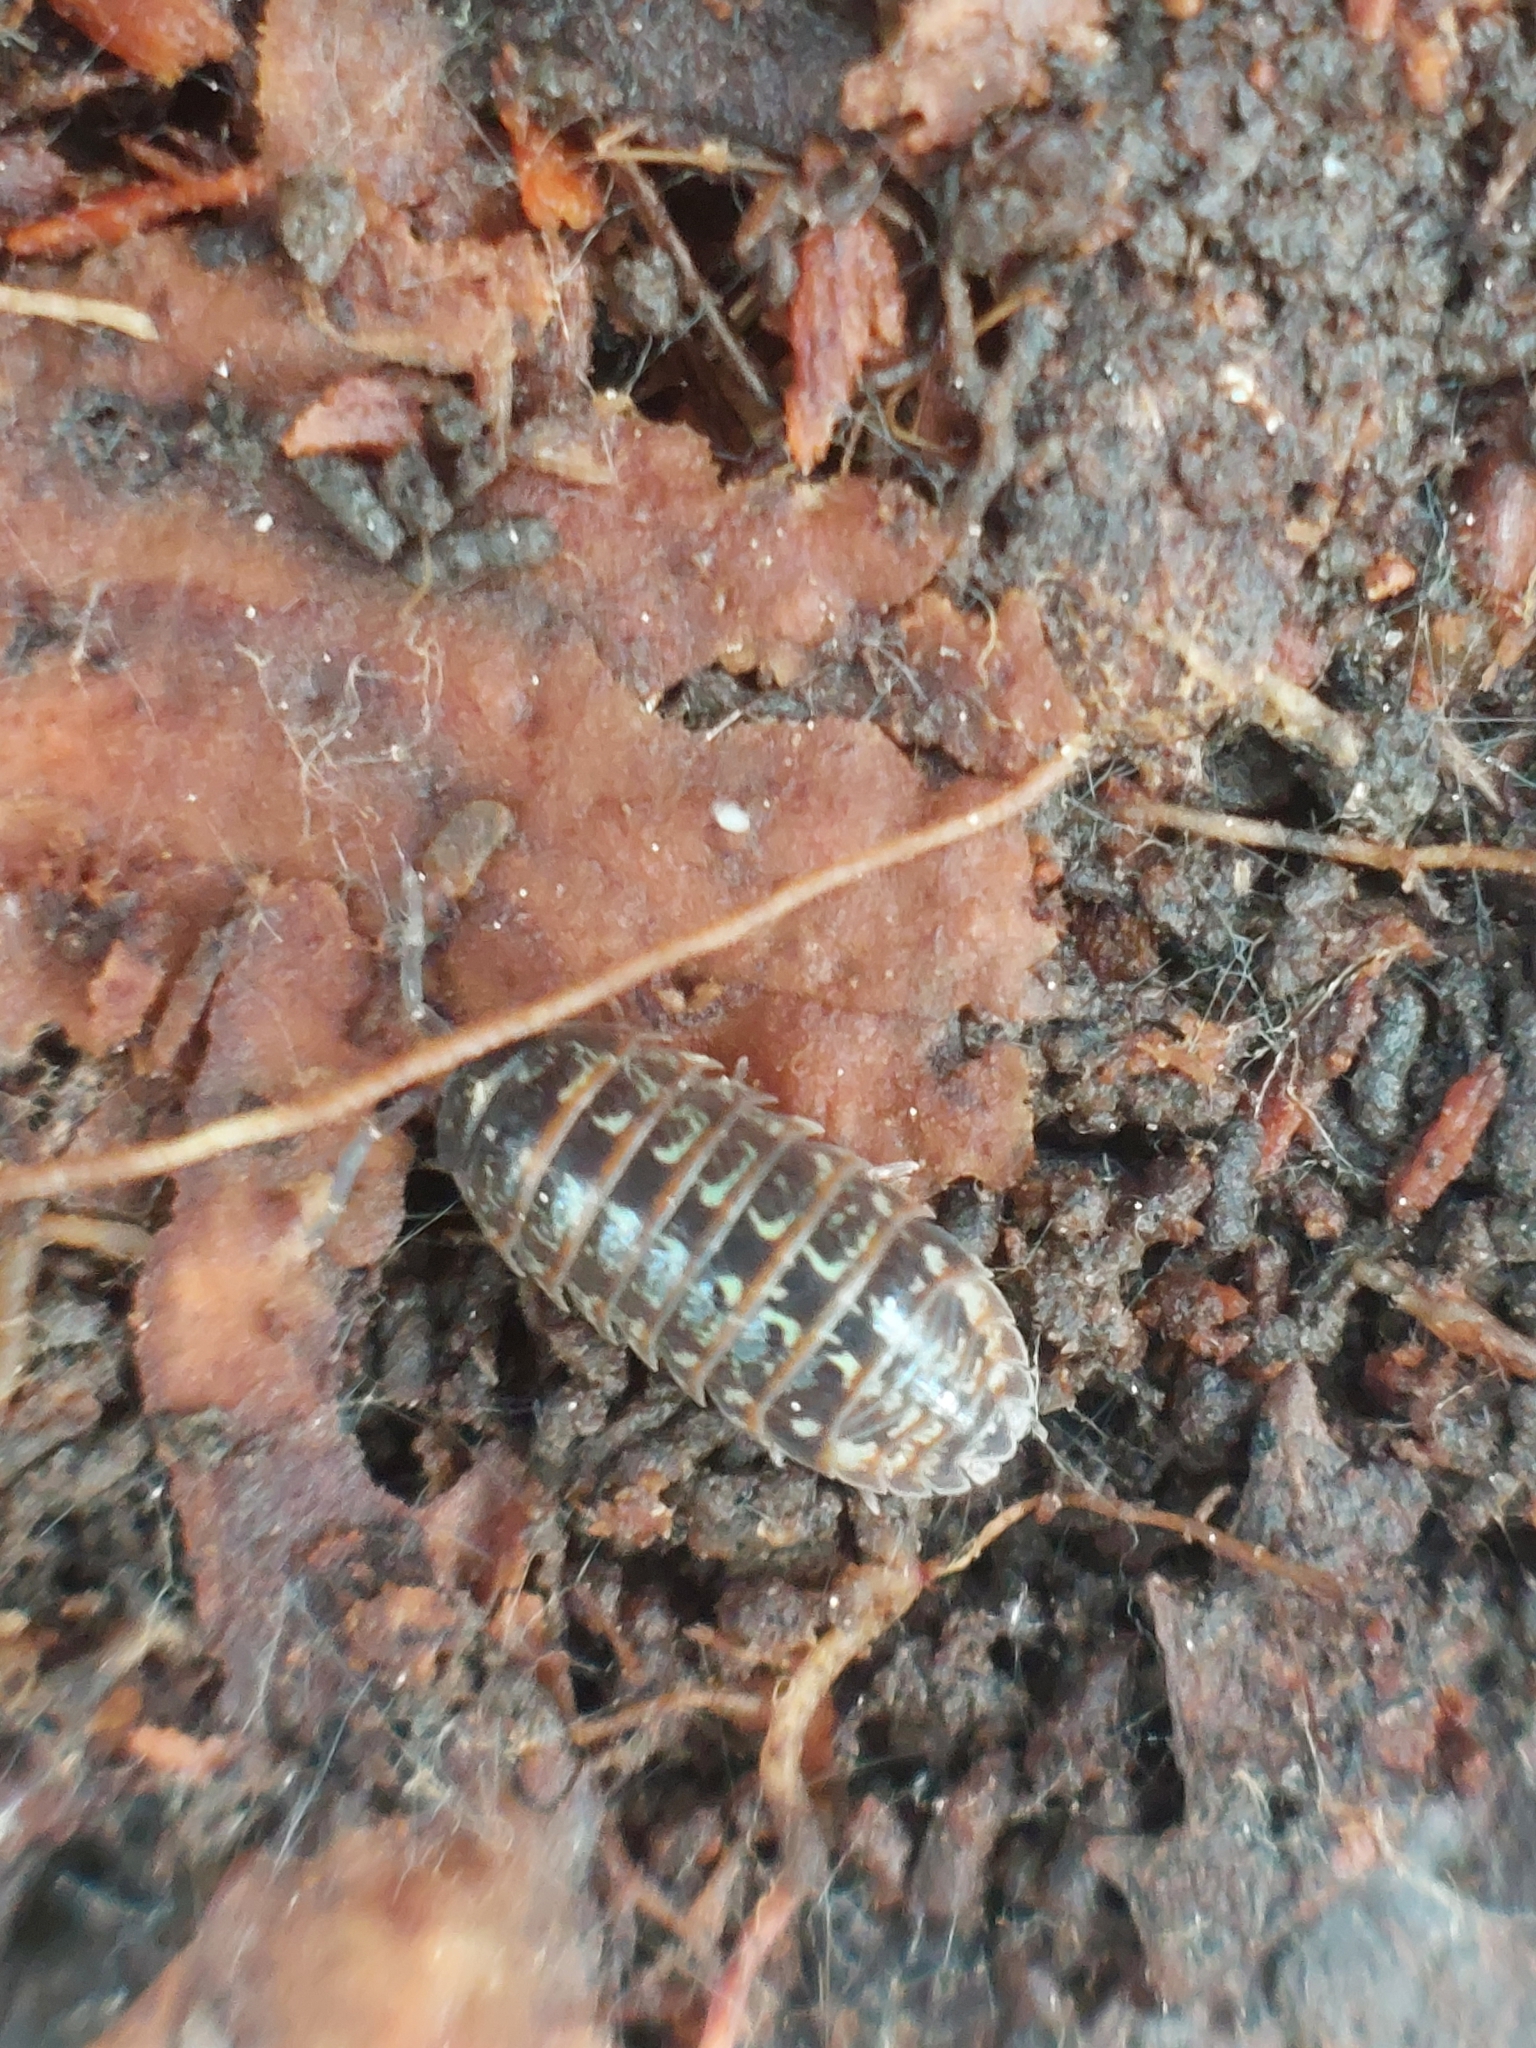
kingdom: Animalia
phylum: Arthropoda
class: Malacostraca
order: Isopoda
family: Armadillidiidae
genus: Armadillidium
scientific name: Armadillidium pictum
